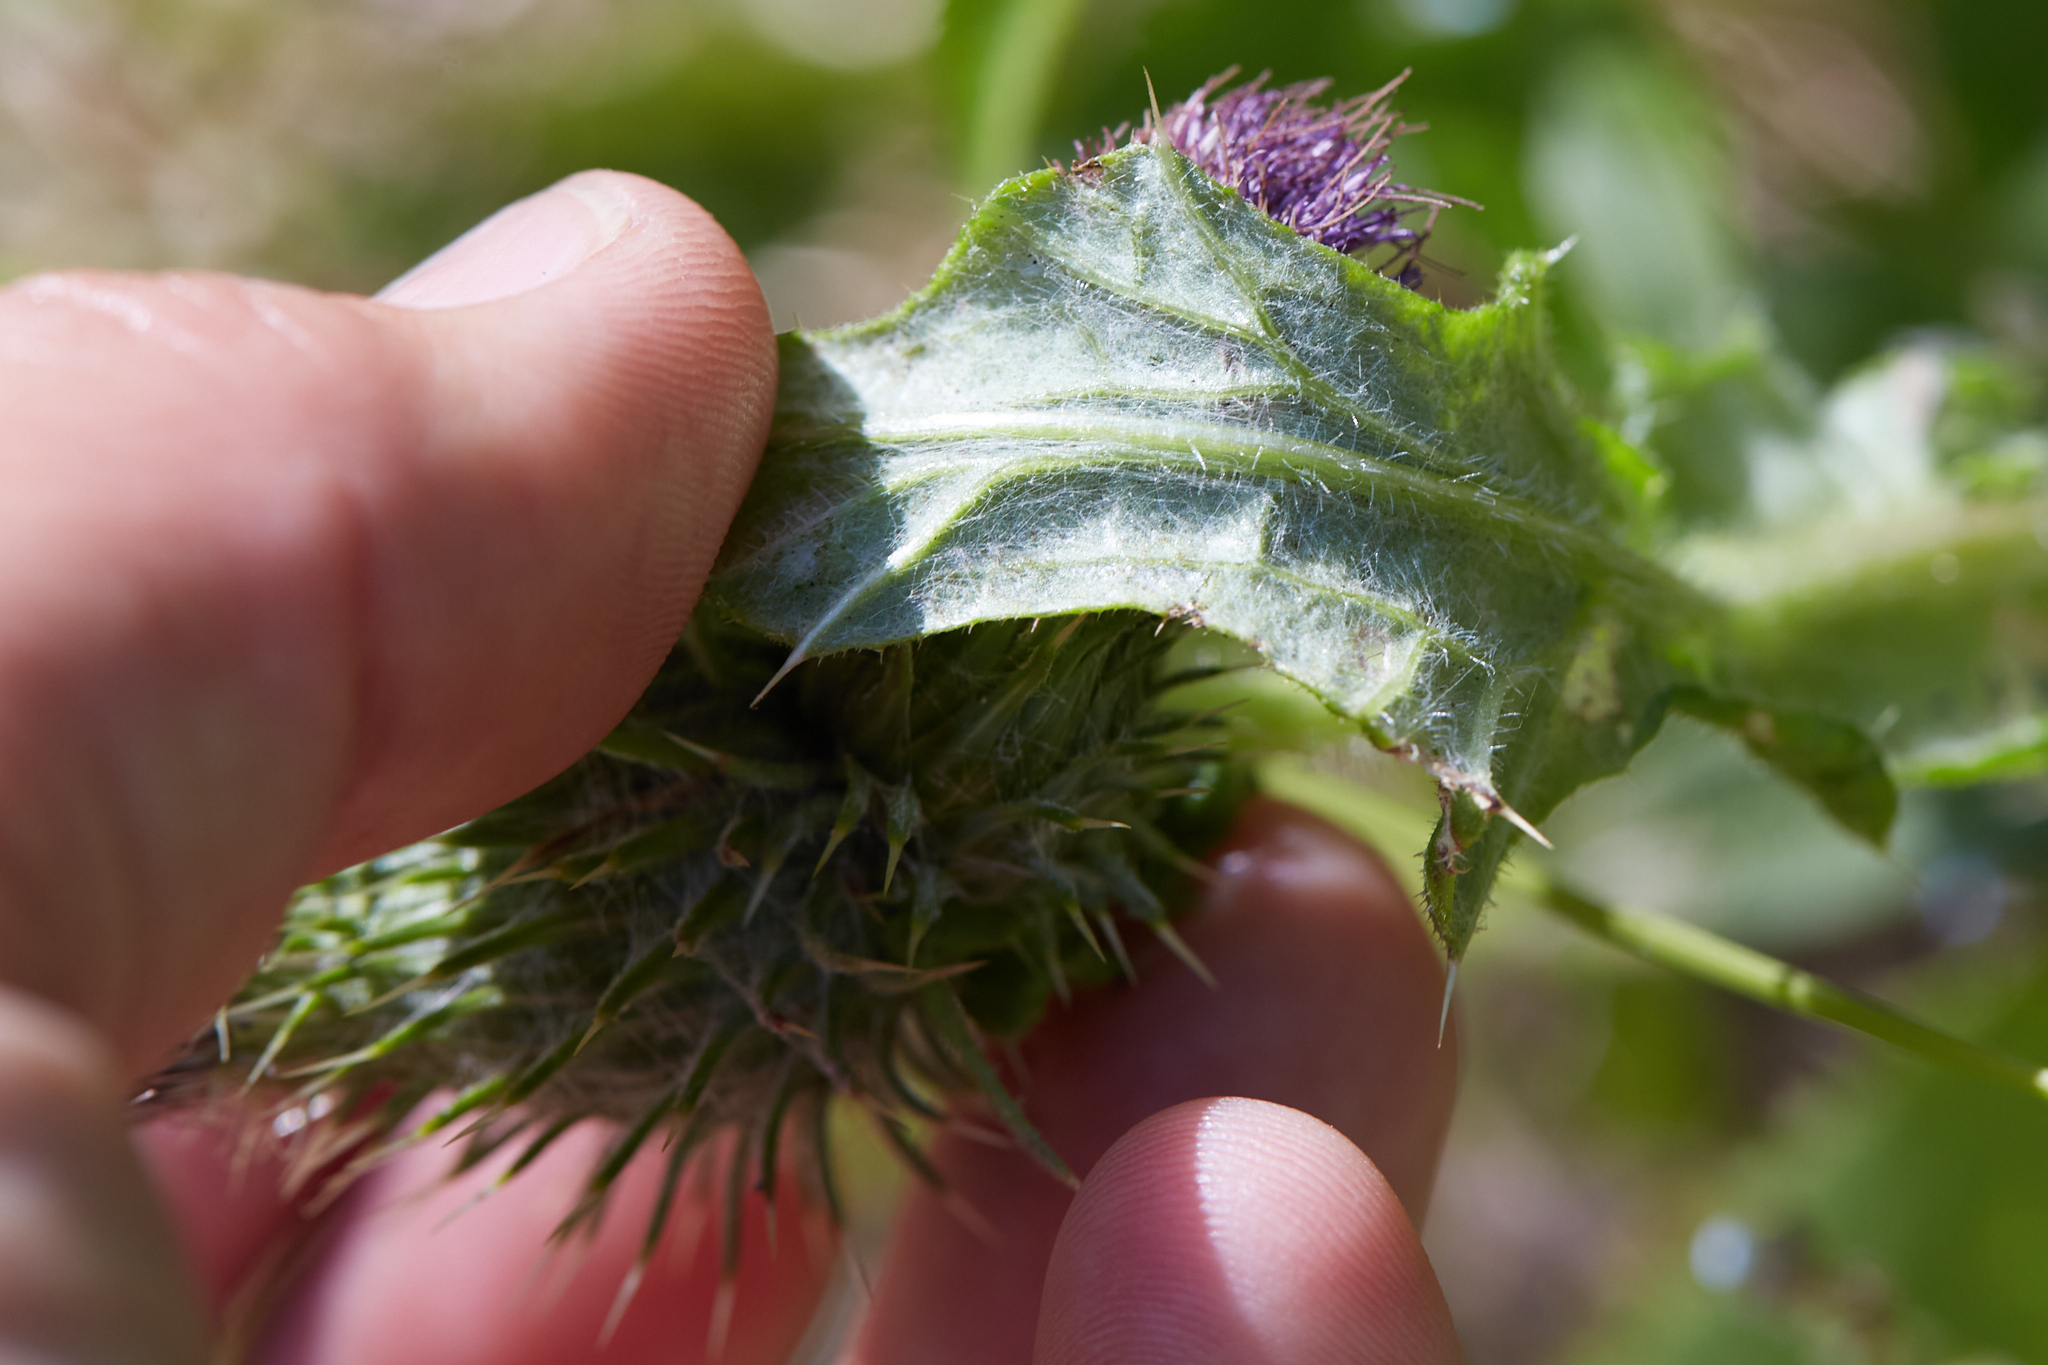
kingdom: Plantae
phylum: Tracheophyta
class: Magnoliopsida
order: Asterales
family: Asteraceae
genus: Cirsium
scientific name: Cirsium vulgare
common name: Bull thistle
